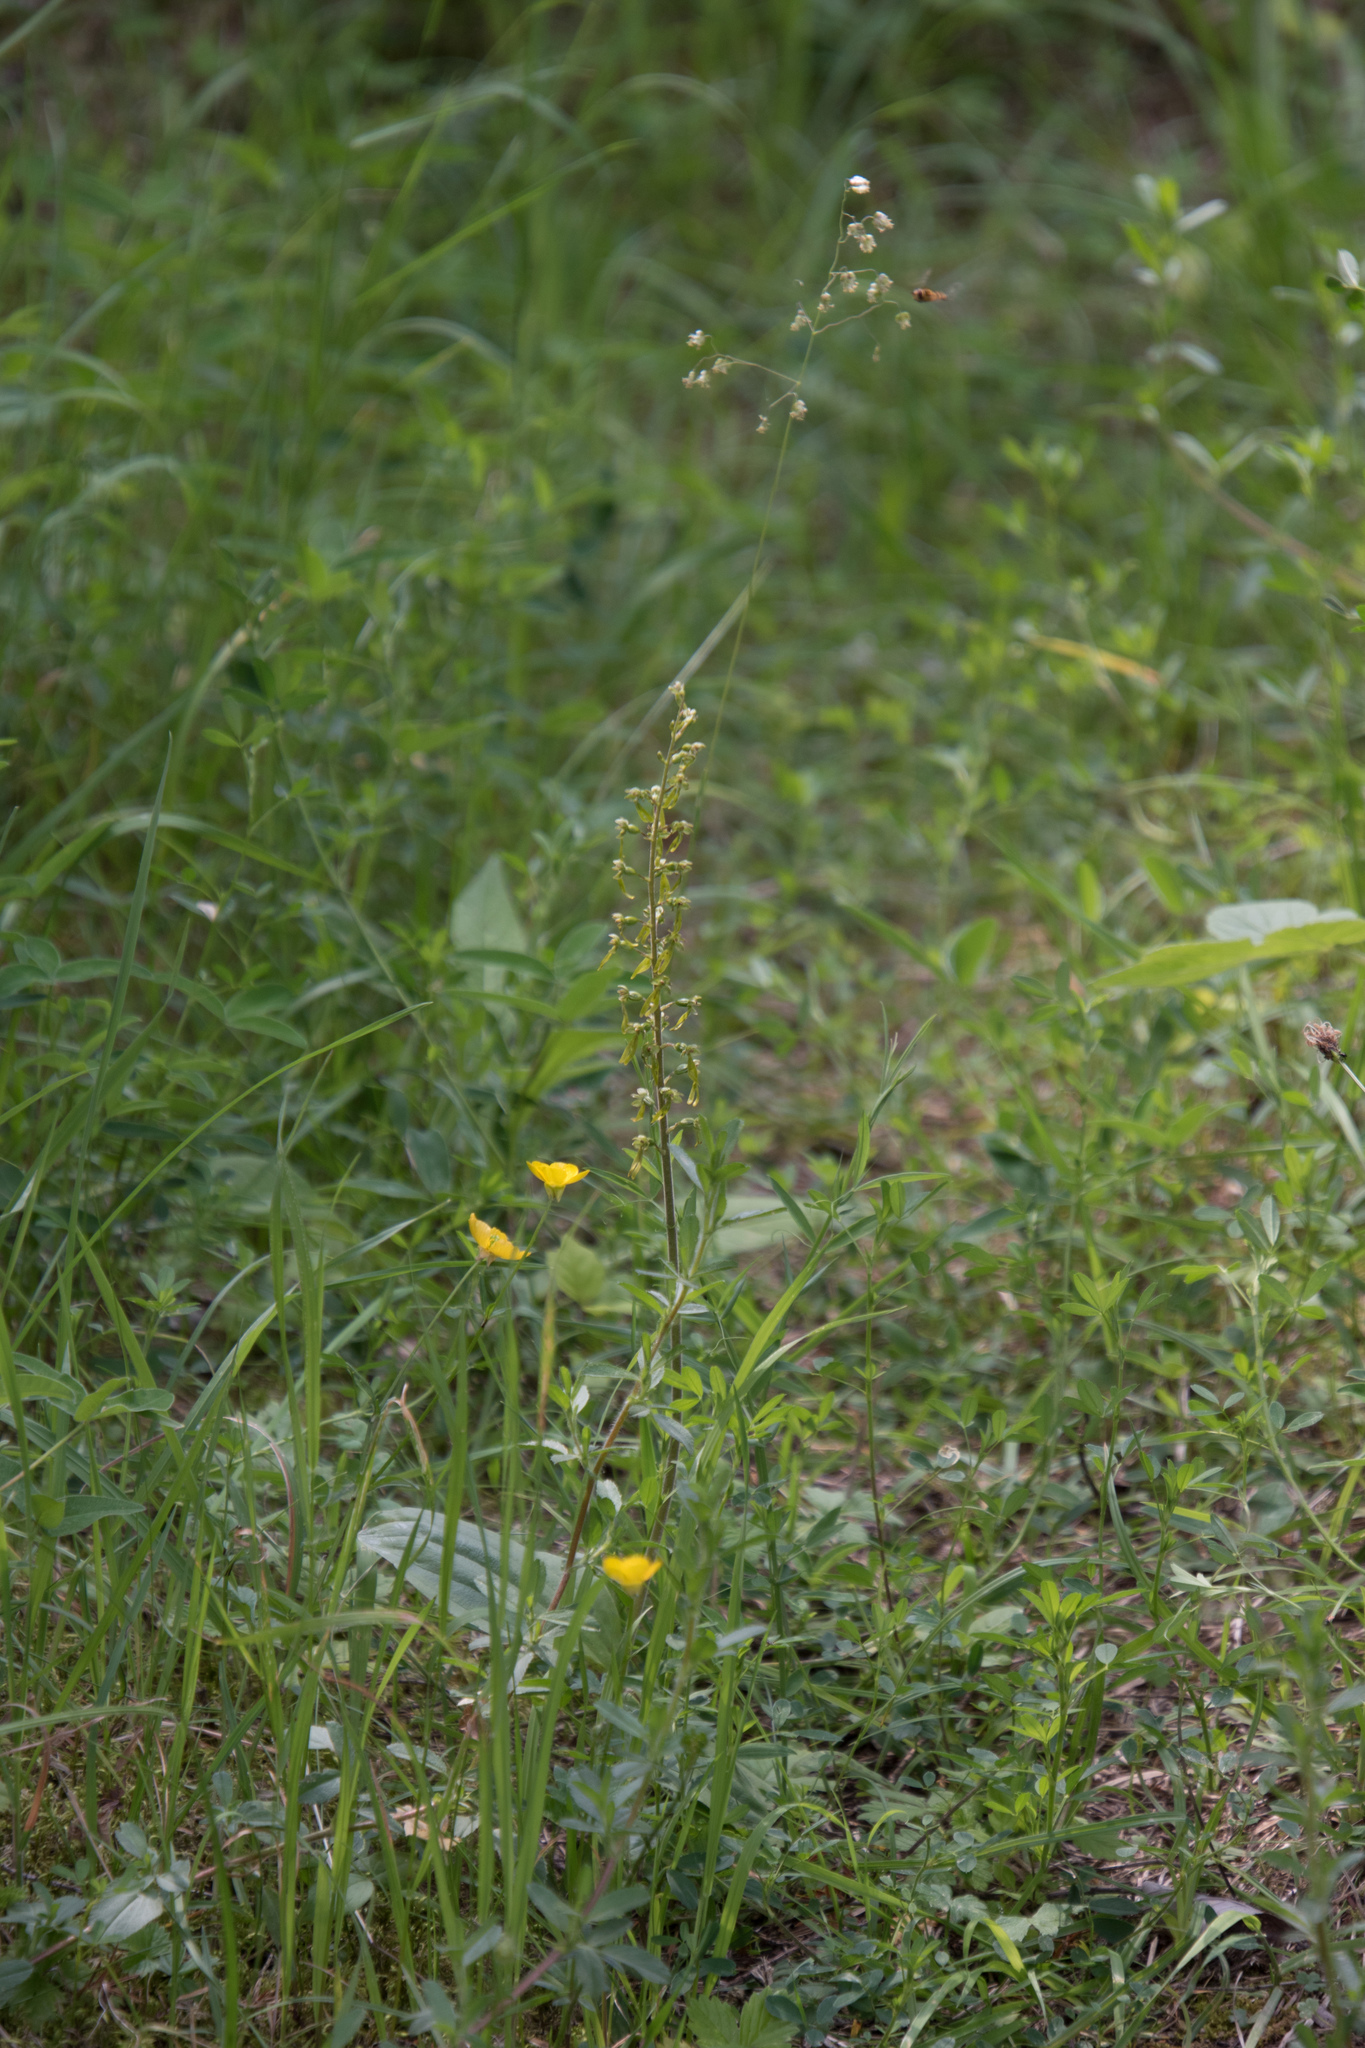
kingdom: Plantae
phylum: Tracheophyta
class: Liliopsida
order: Asparagales
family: Orchidaceae
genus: Neottia
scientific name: Neottia ovata
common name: Common twayblade
